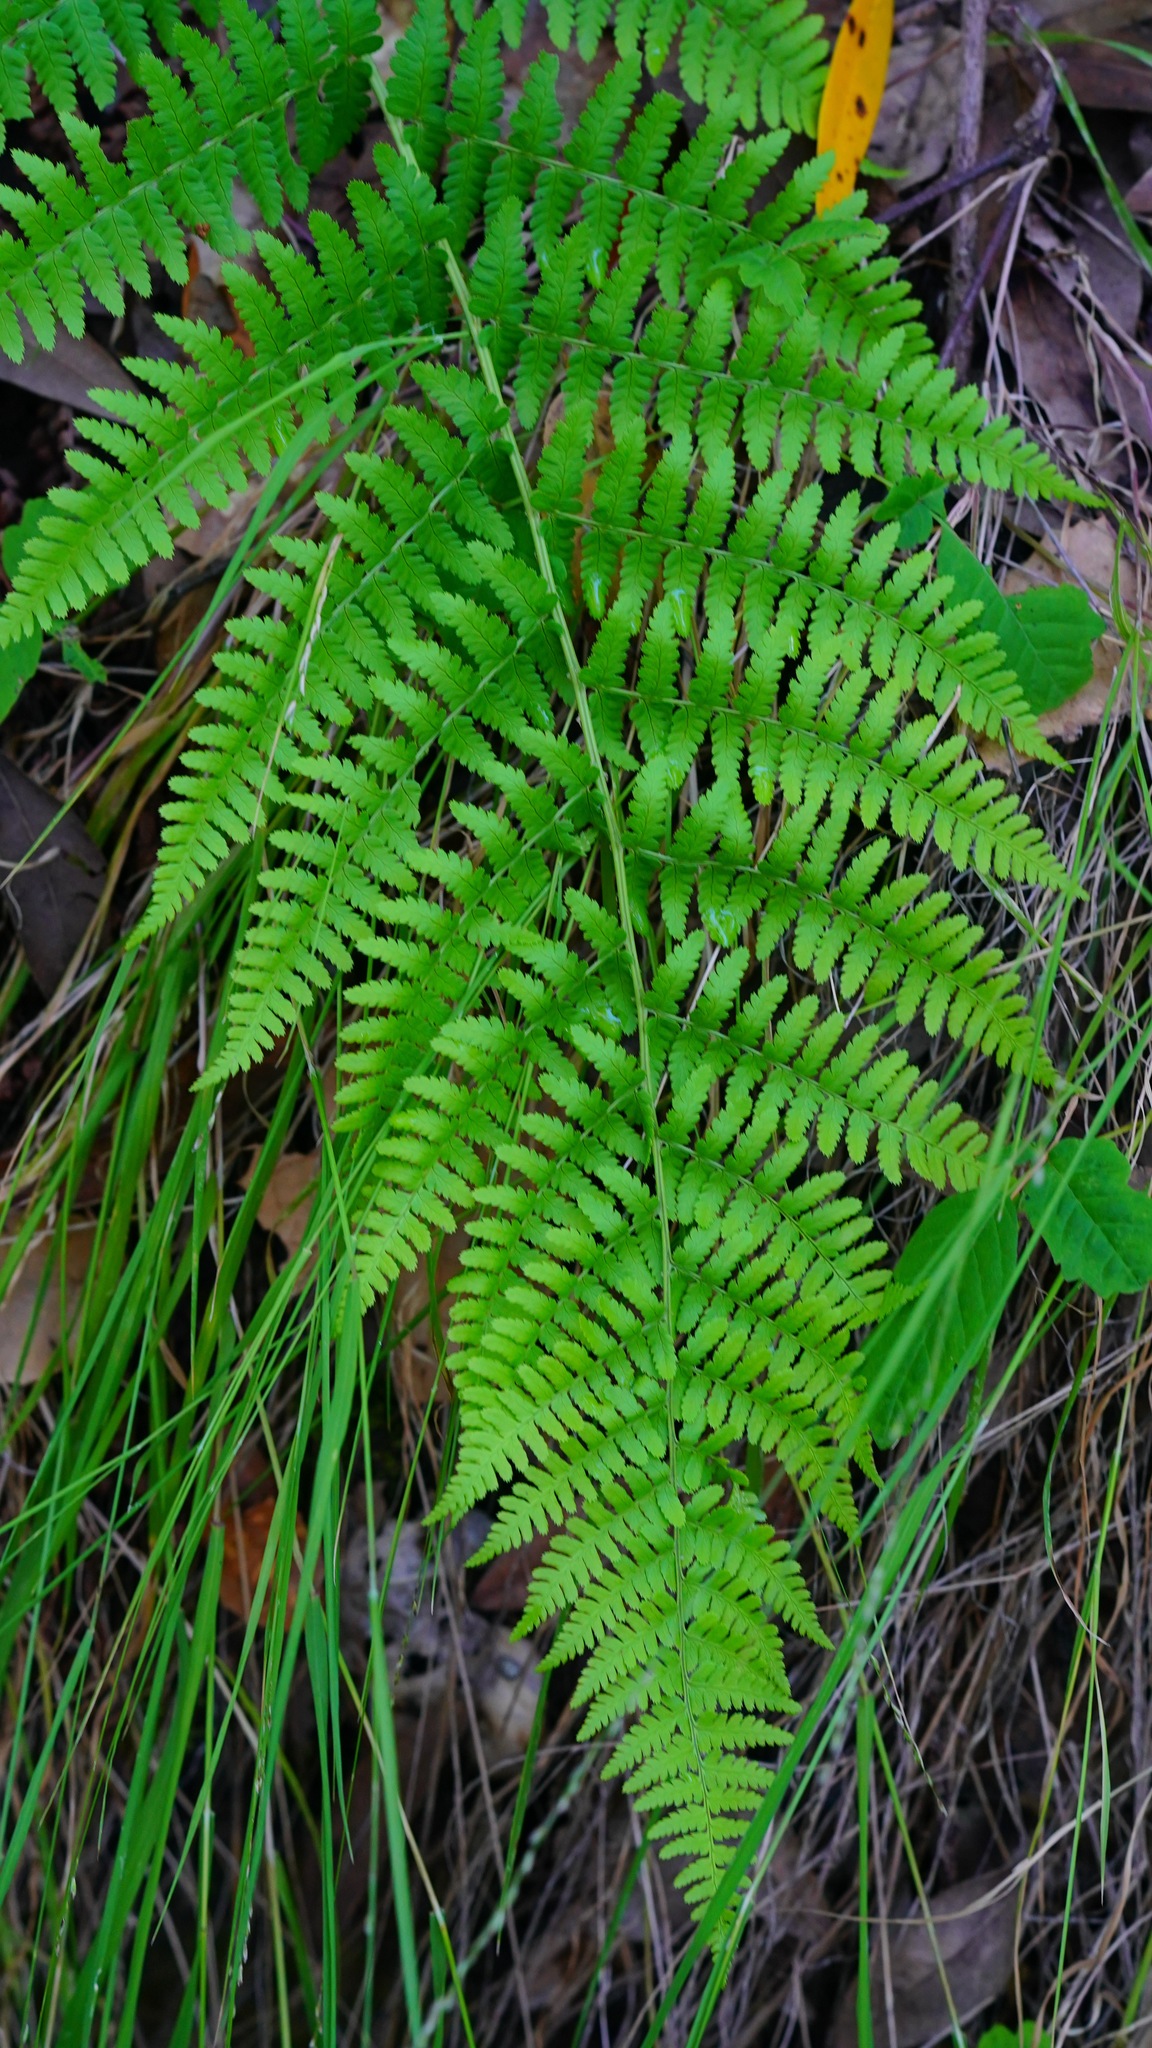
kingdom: Plantae
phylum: Tracheophyta
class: Polypodiopsida
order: Polypodiales
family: Dryopteridaceae
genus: Dryopteris
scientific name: Dryopteris arguta
